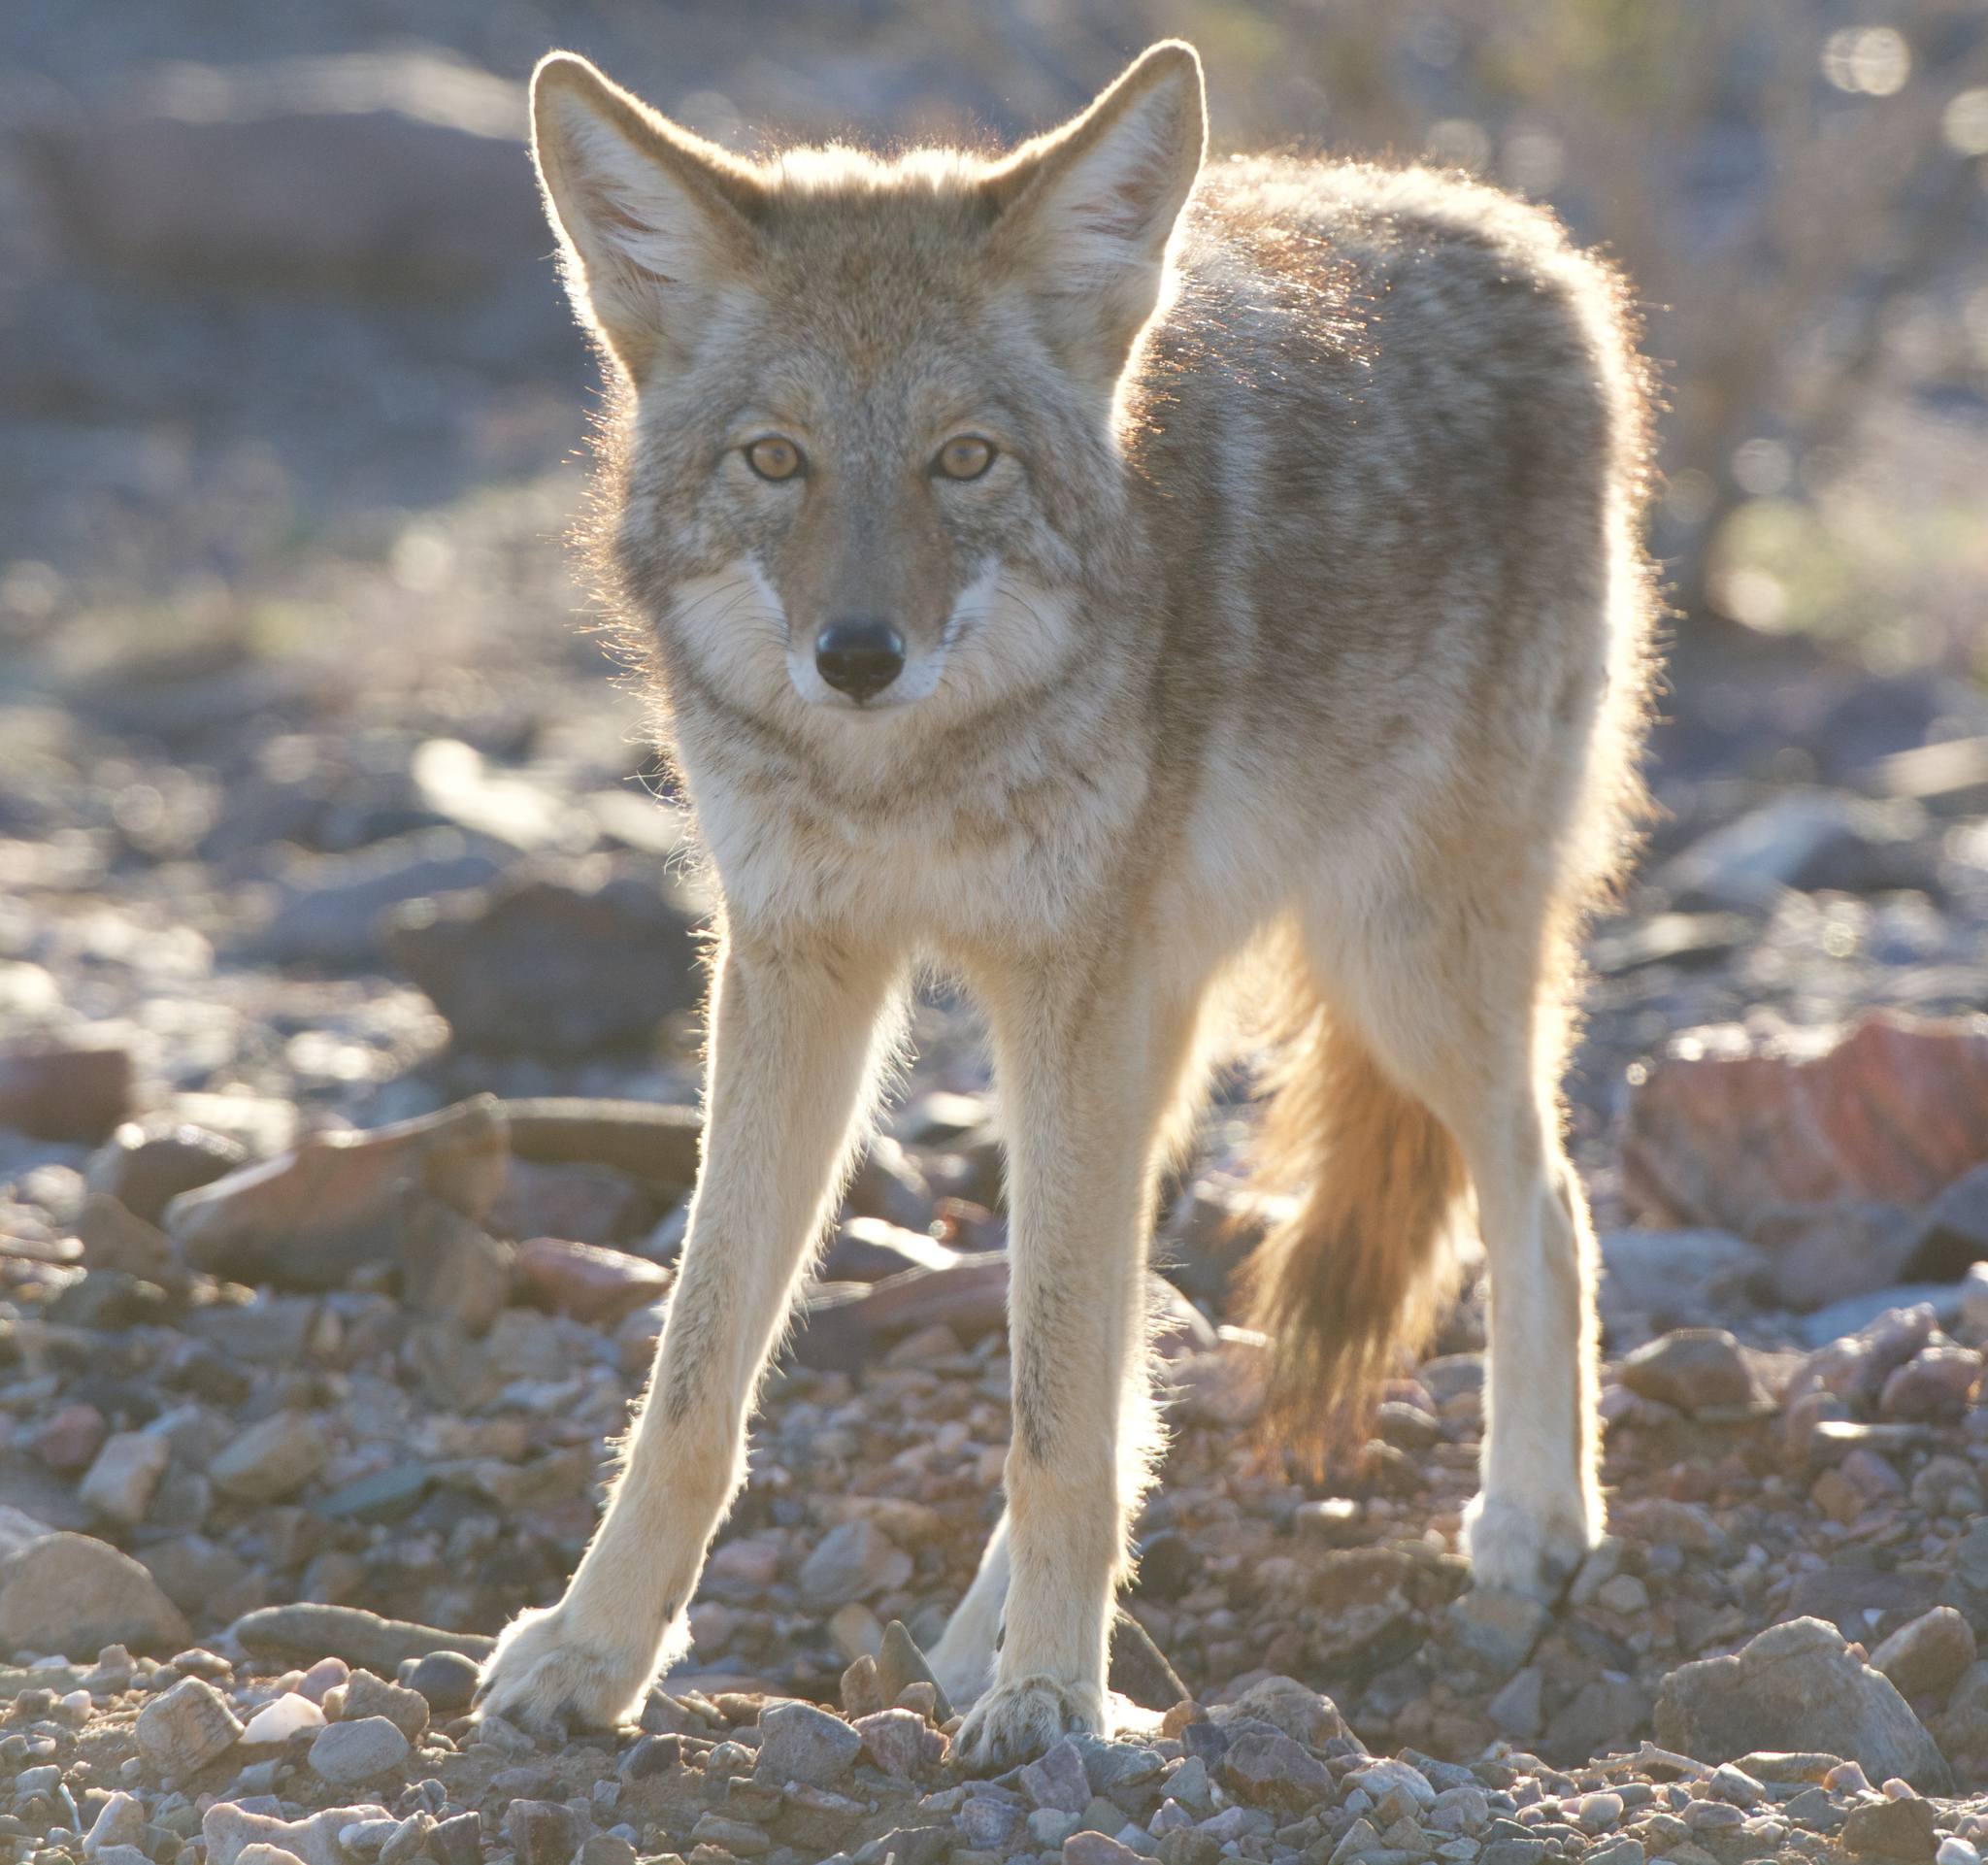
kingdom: Animalia
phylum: Chordata
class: Mammalia
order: Carnivora
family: Canidae
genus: Canis
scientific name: Canis latrans
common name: Coyote
